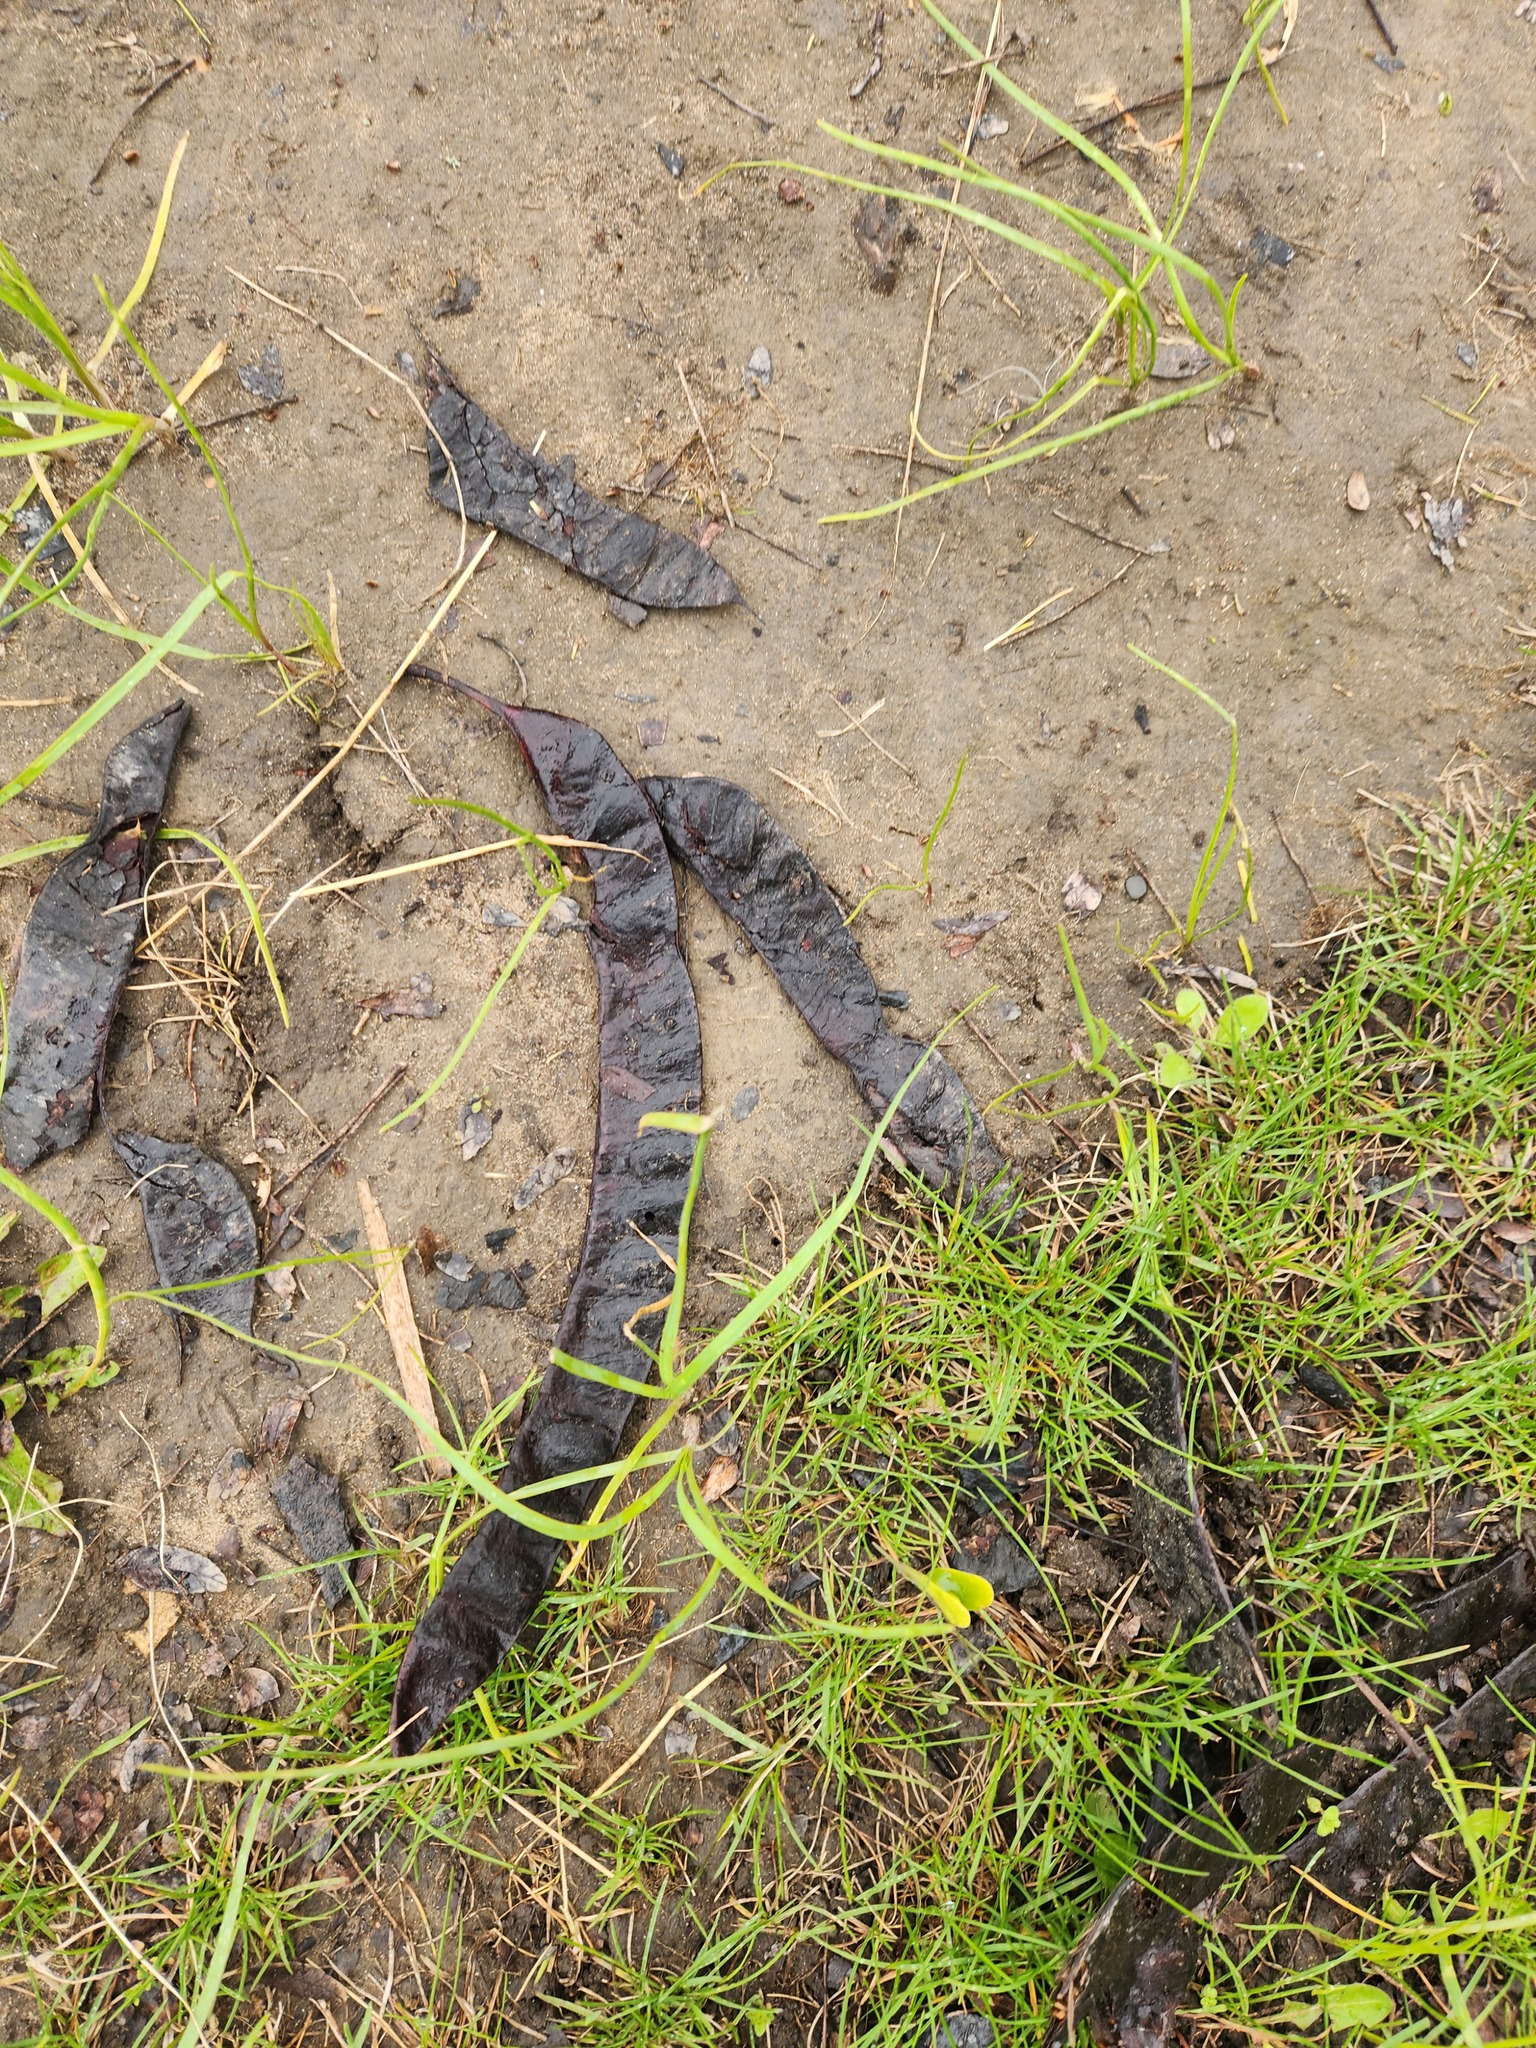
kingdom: Plantae
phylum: Tracheophyta
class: Magnoliopsida
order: Fabales
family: Fabaceae
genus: Gleditsia
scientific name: Gleditsia triacanthos
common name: Common honeylocust
